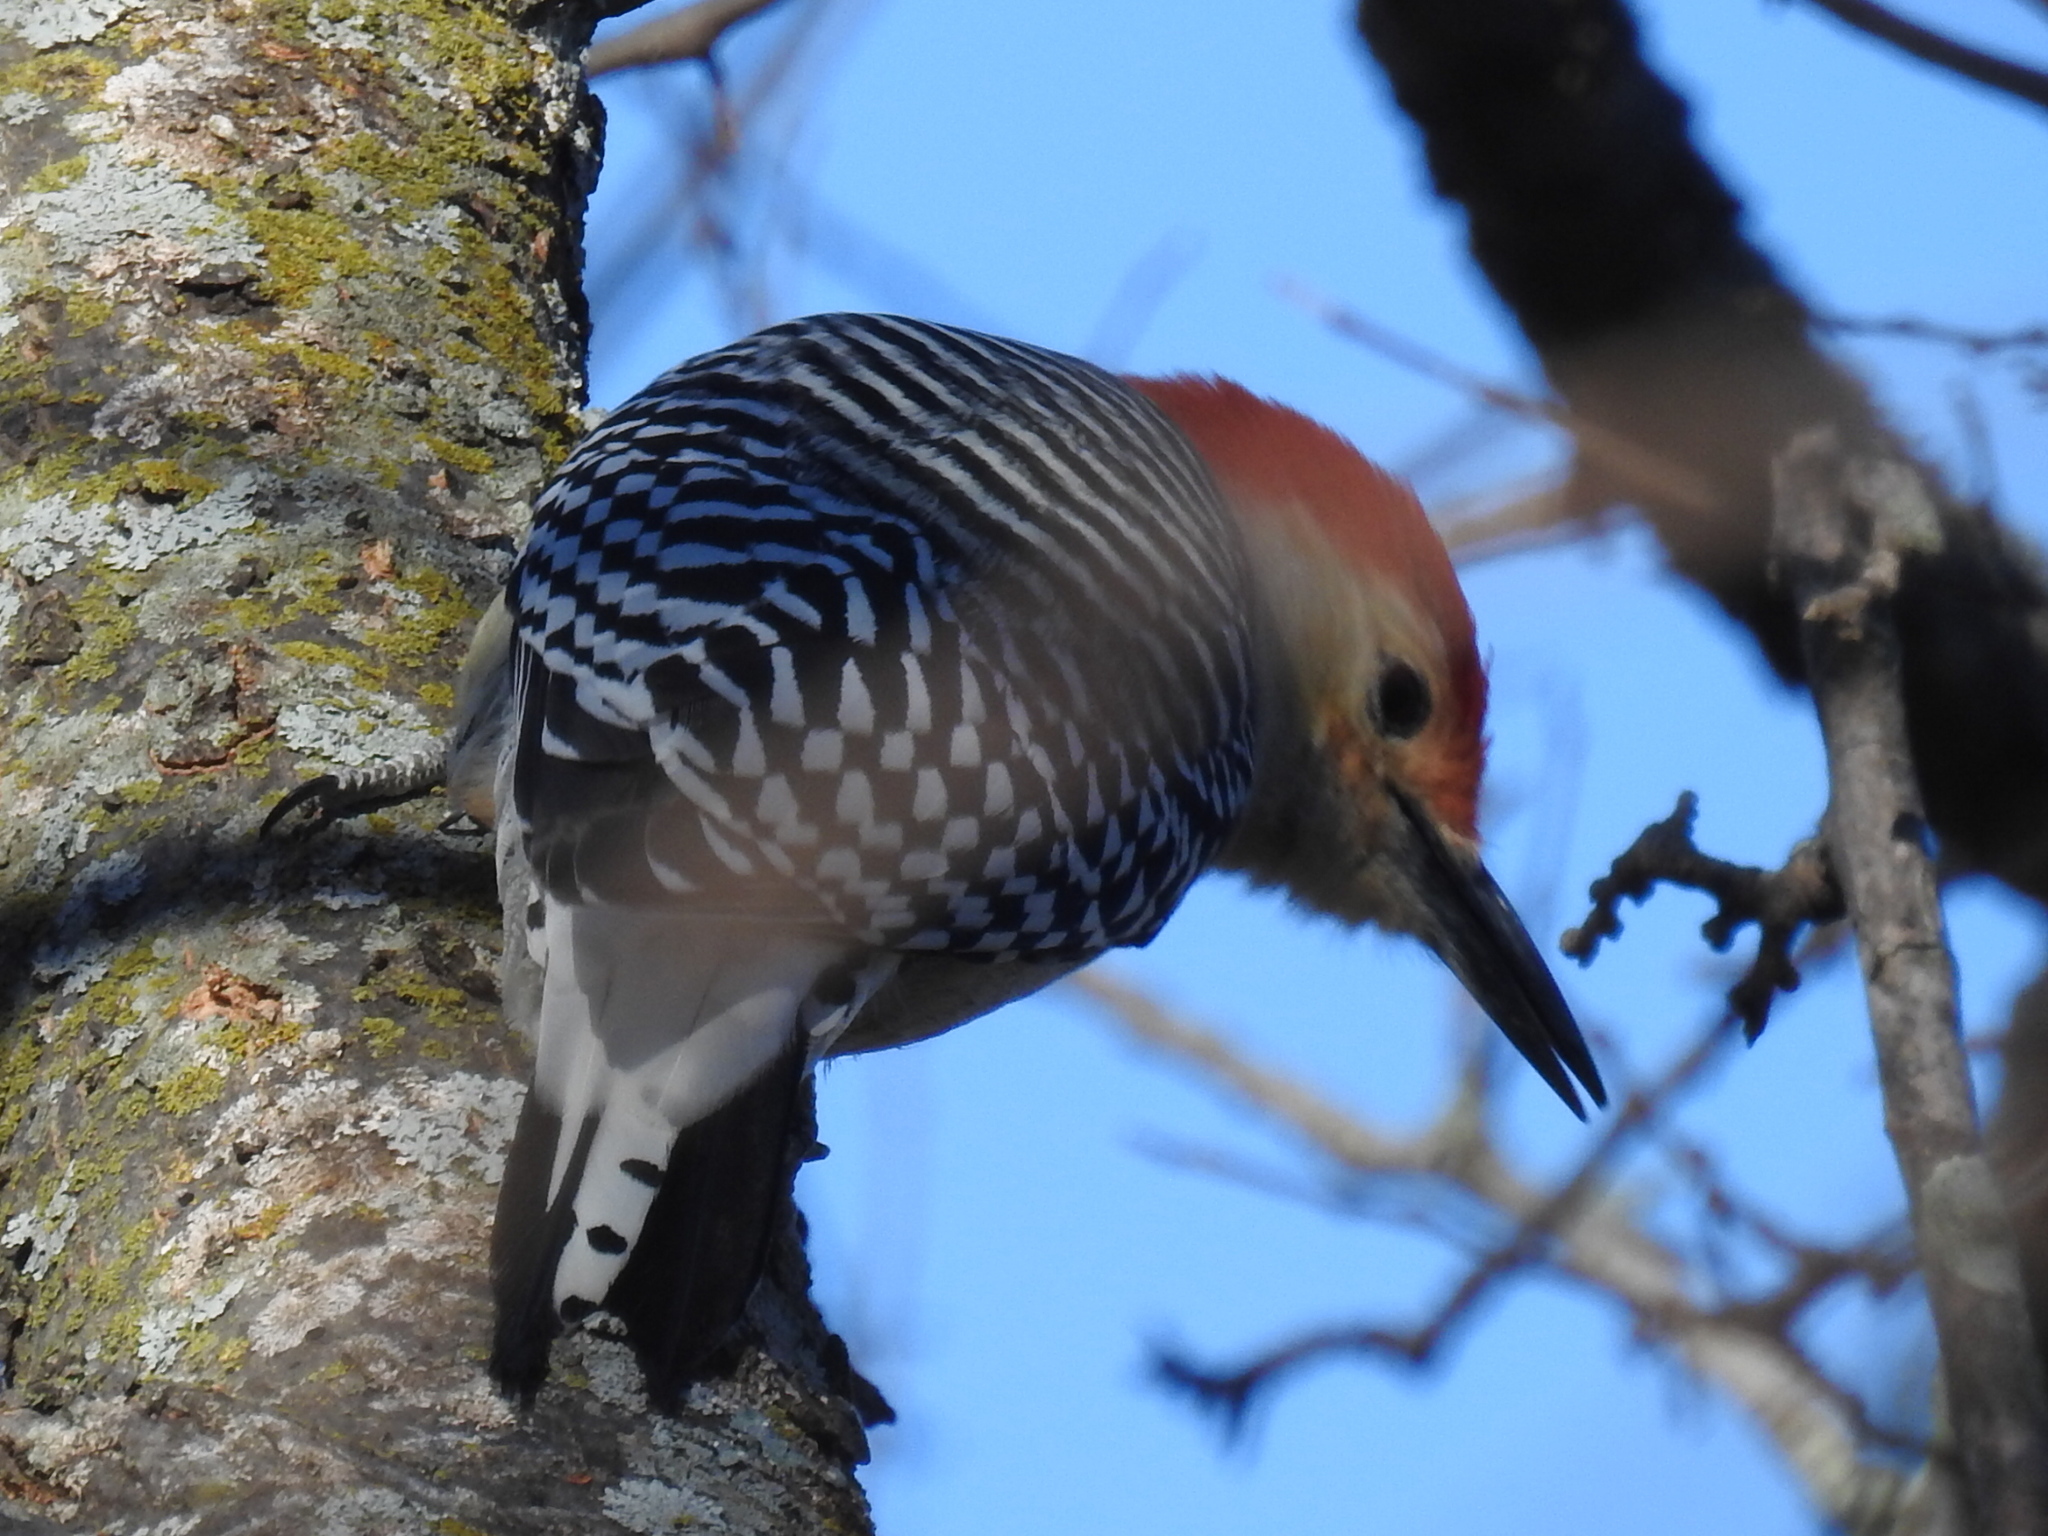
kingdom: Animalia
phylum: Chordata
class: Aves
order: Piciformes
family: Picidae
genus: Melanerpes
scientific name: Melanerpes carolinus
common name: Red-bellied woodpecker
